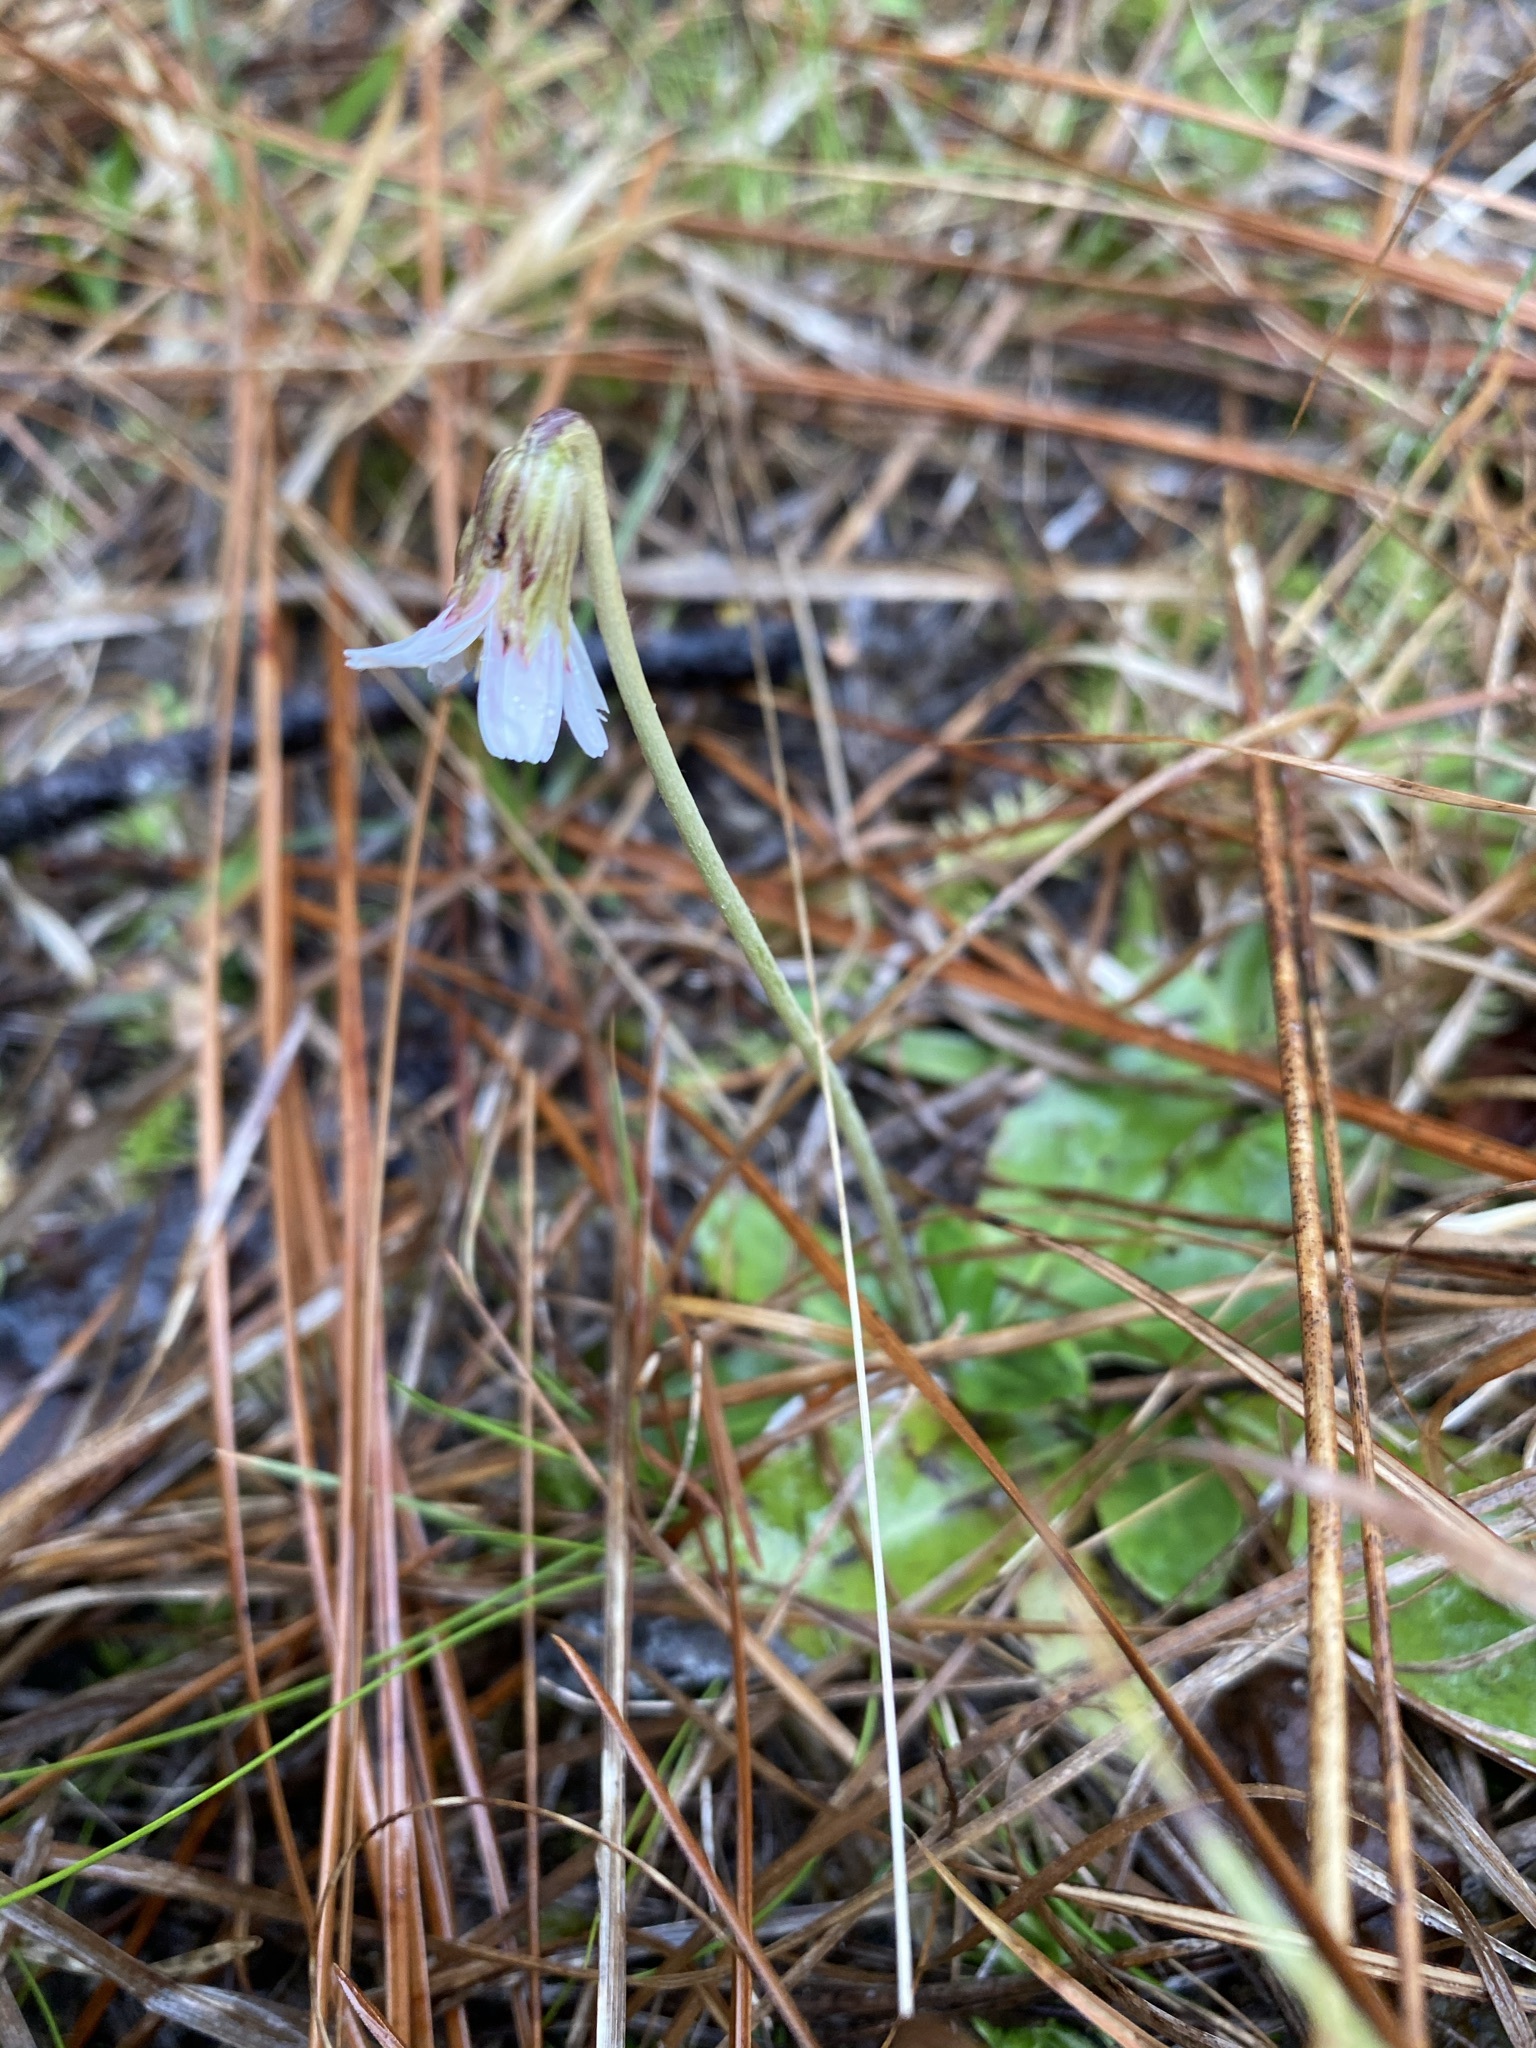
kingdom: Plantae
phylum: Tracheophyta
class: Magnoliopsida
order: Asterales
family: Asteraceae
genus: Chaptalia
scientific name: Chaptalia tomentosa
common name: Woolly sunbonnet
